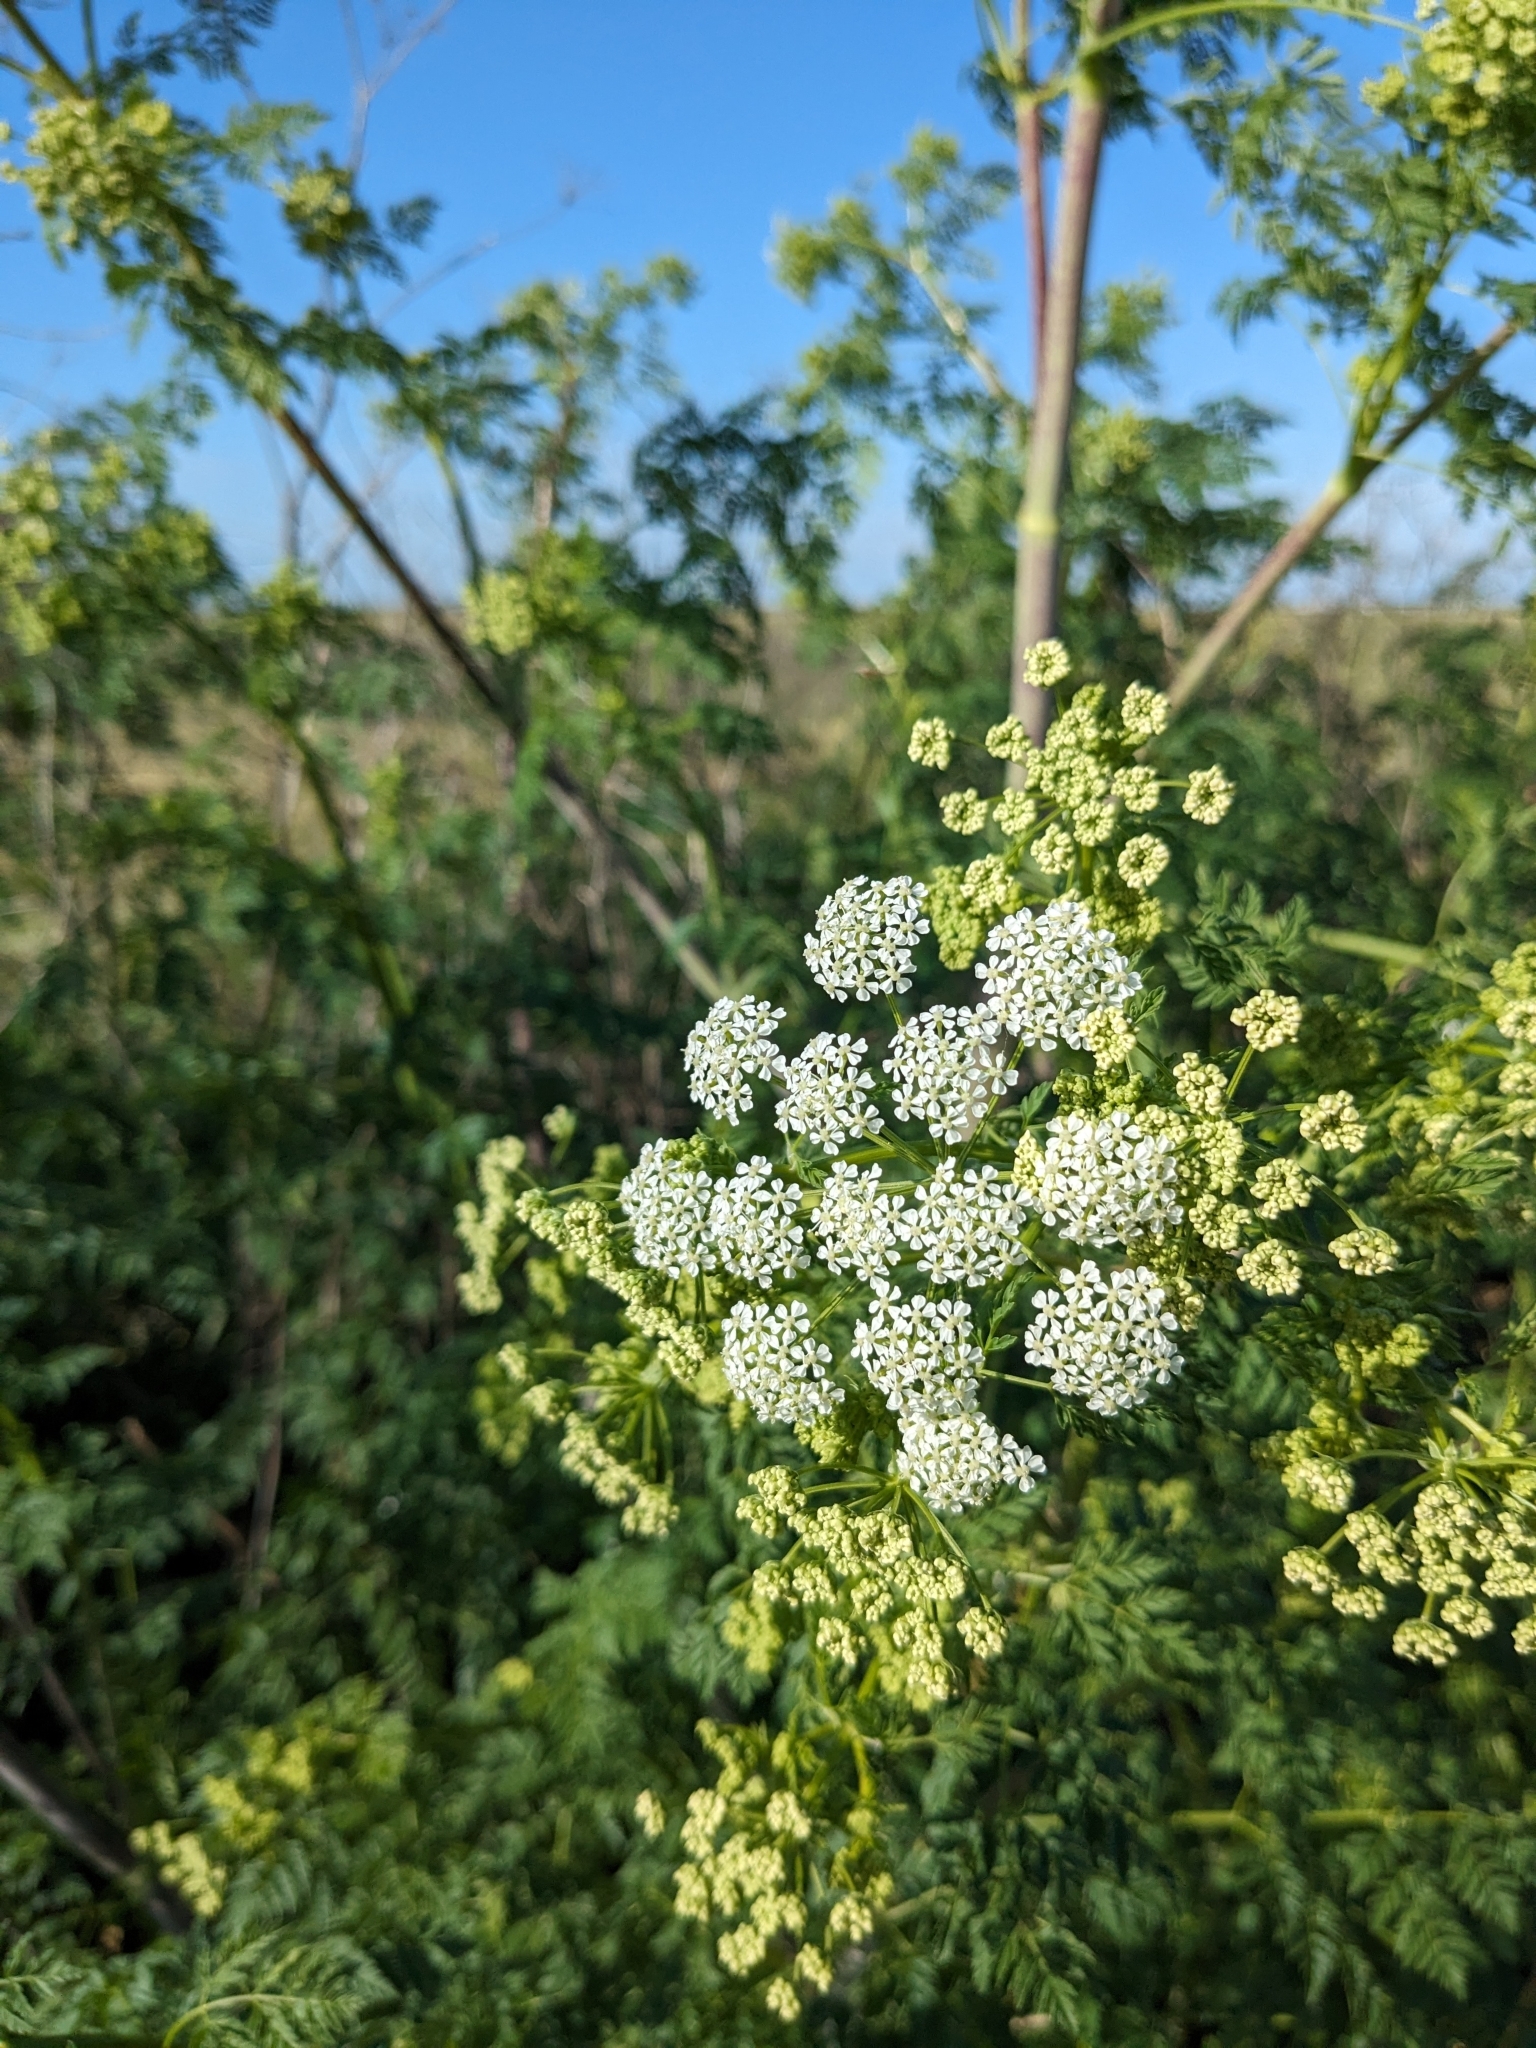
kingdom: Plantae
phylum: Tracheophyta
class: Magnoliopsida
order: Apiales
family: Apiaceae
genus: Conium
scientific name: Conium maculatum
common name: Hemlock
